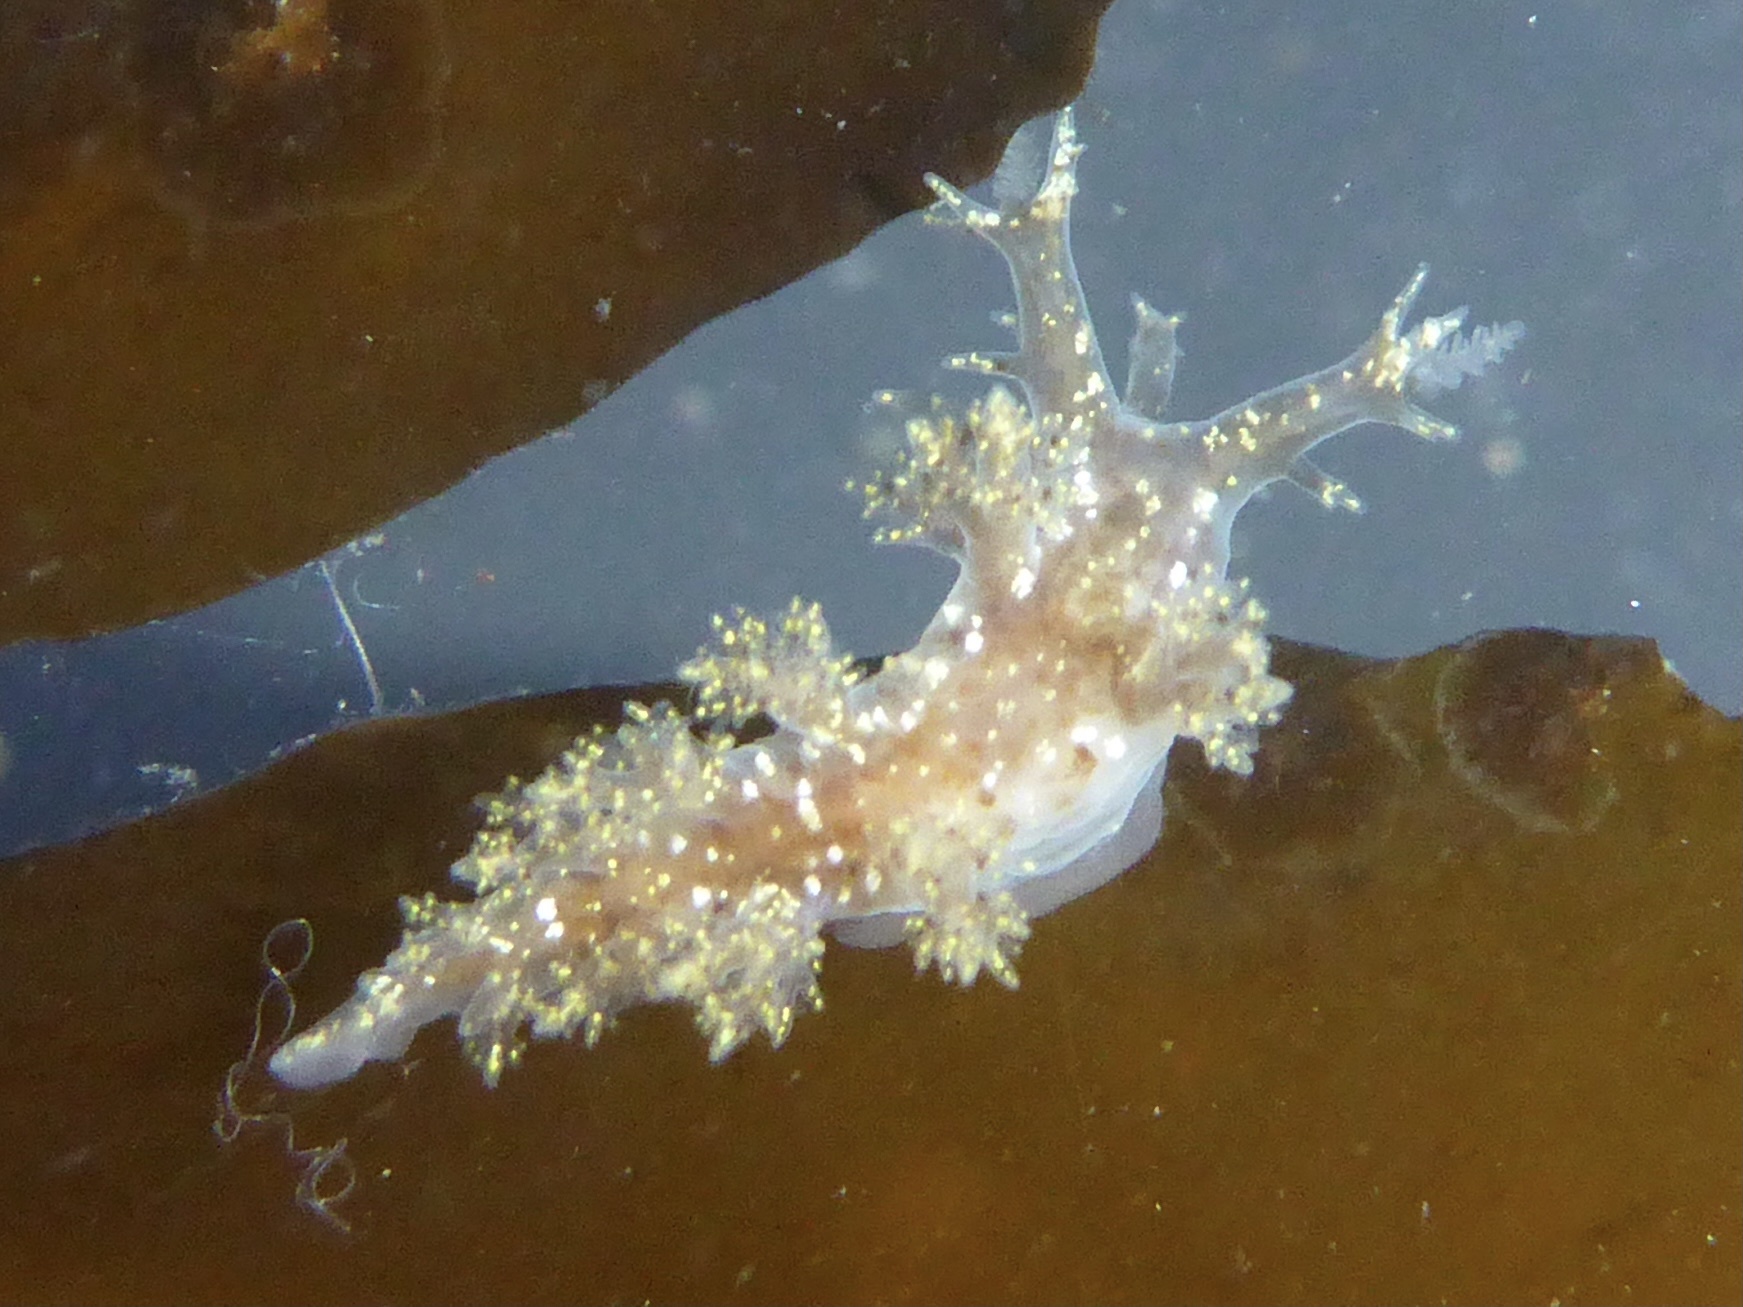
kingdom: Animalia
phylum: Mollusca
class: Gastropoda
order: Nudibranchia
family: Dendronotidae
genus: Dendronotus
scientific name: Dendronotus venustus
